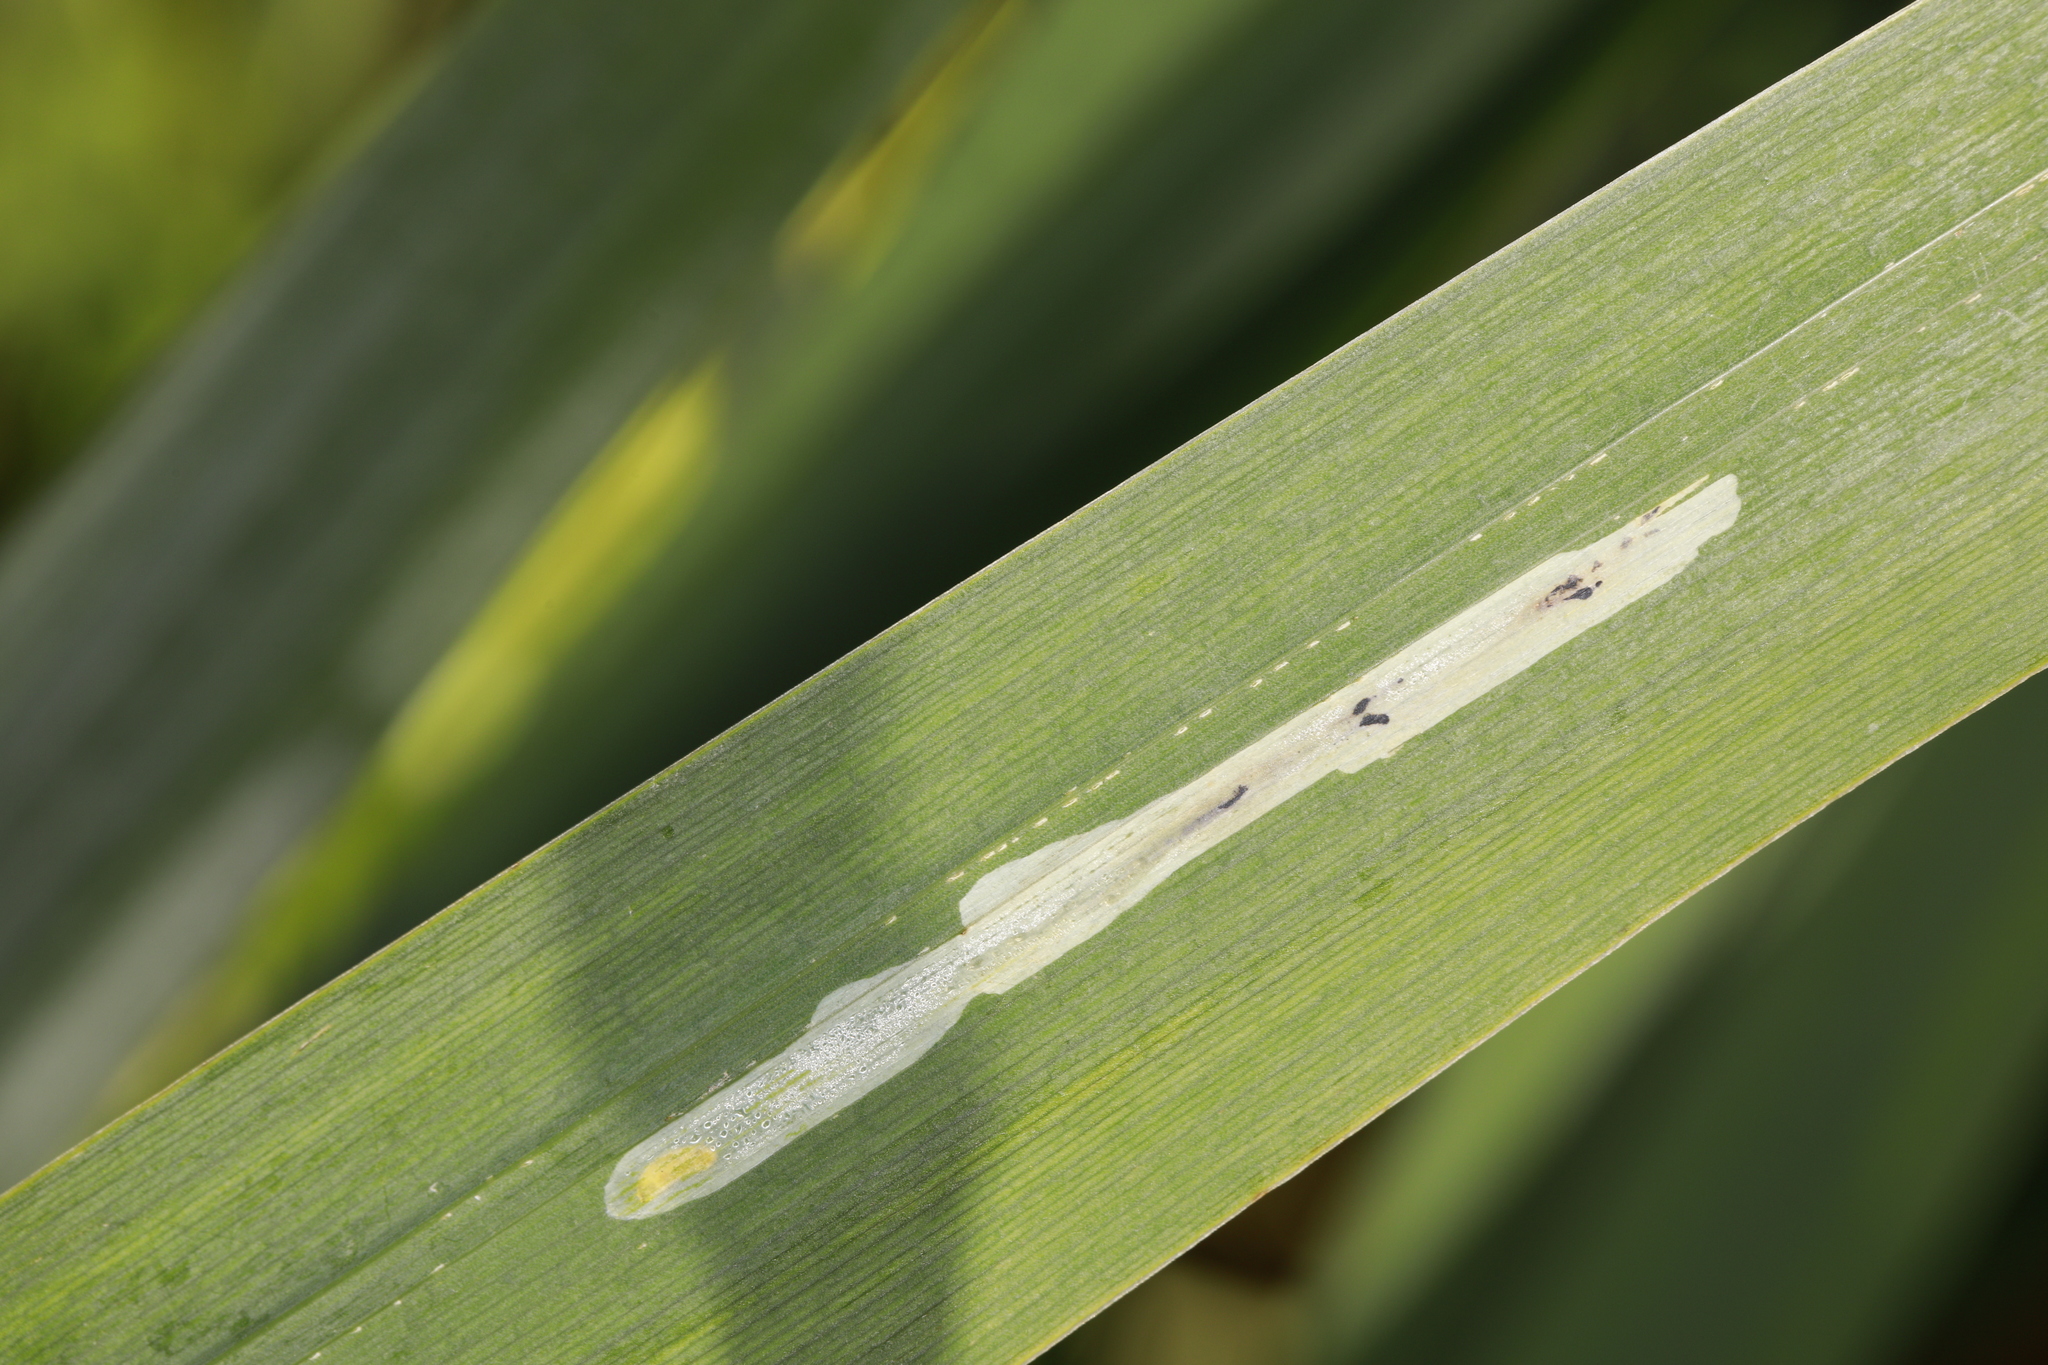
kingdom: Animalia
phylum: Arthropoda
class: Insecta
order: Diptera
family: Agromyzidae
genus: Cerodontha
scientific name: Cerodontha ircos
